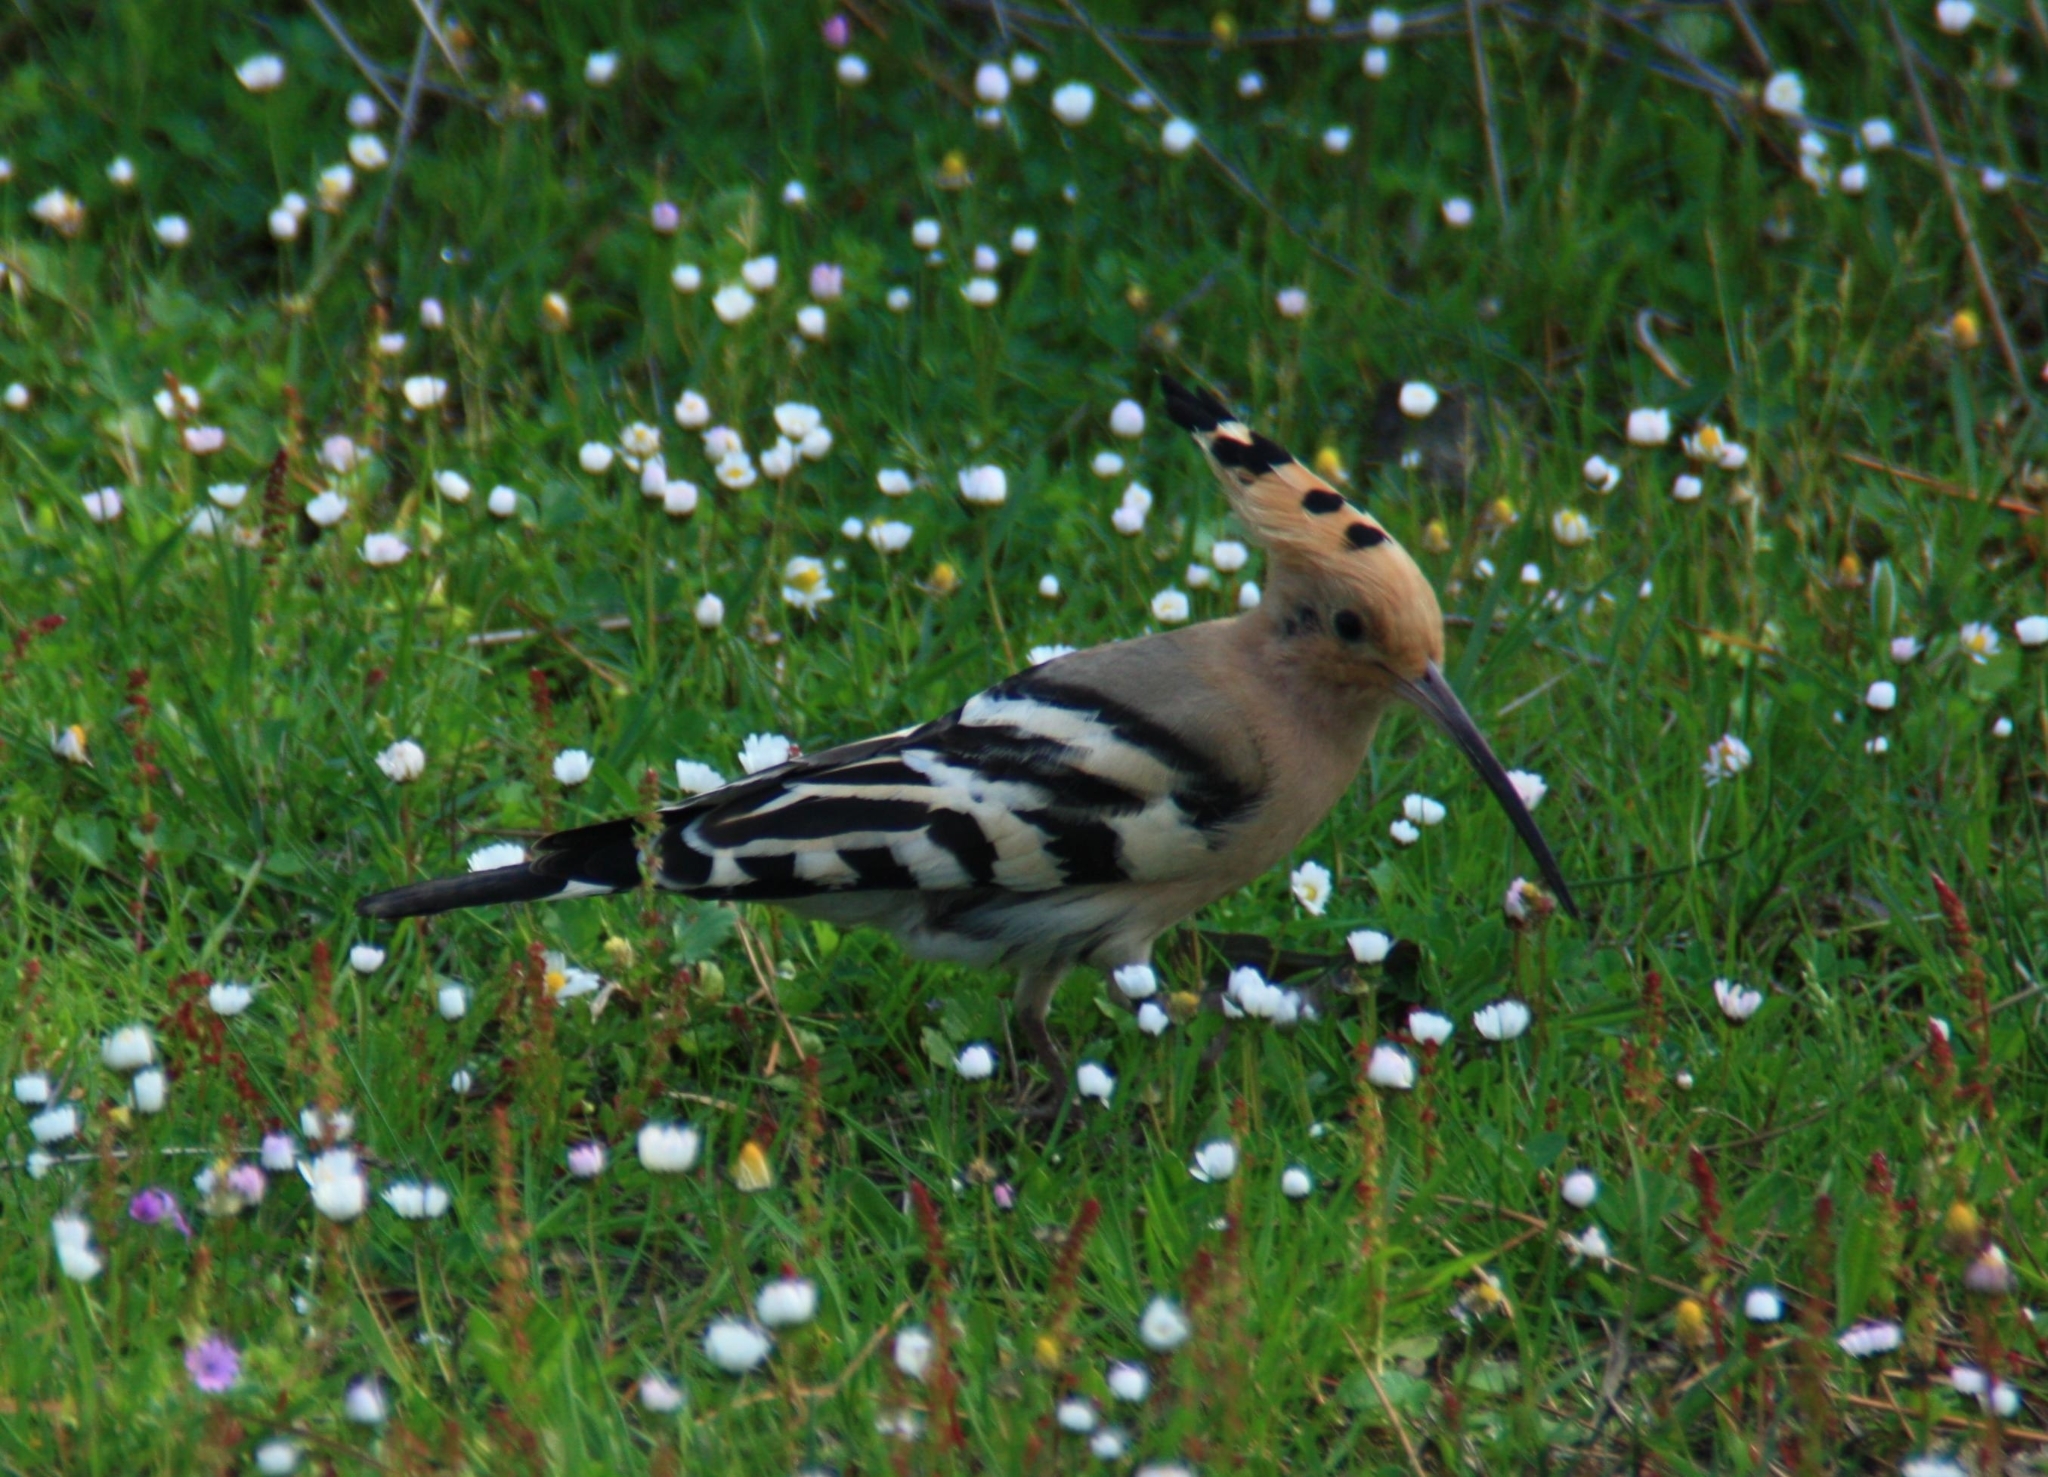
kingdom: Animalia
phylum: Chordata
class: Aves
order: Bucerotiformes
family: Upupidae
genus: Upupa
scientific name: Upupa epops
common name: Eurasian hoopoe
